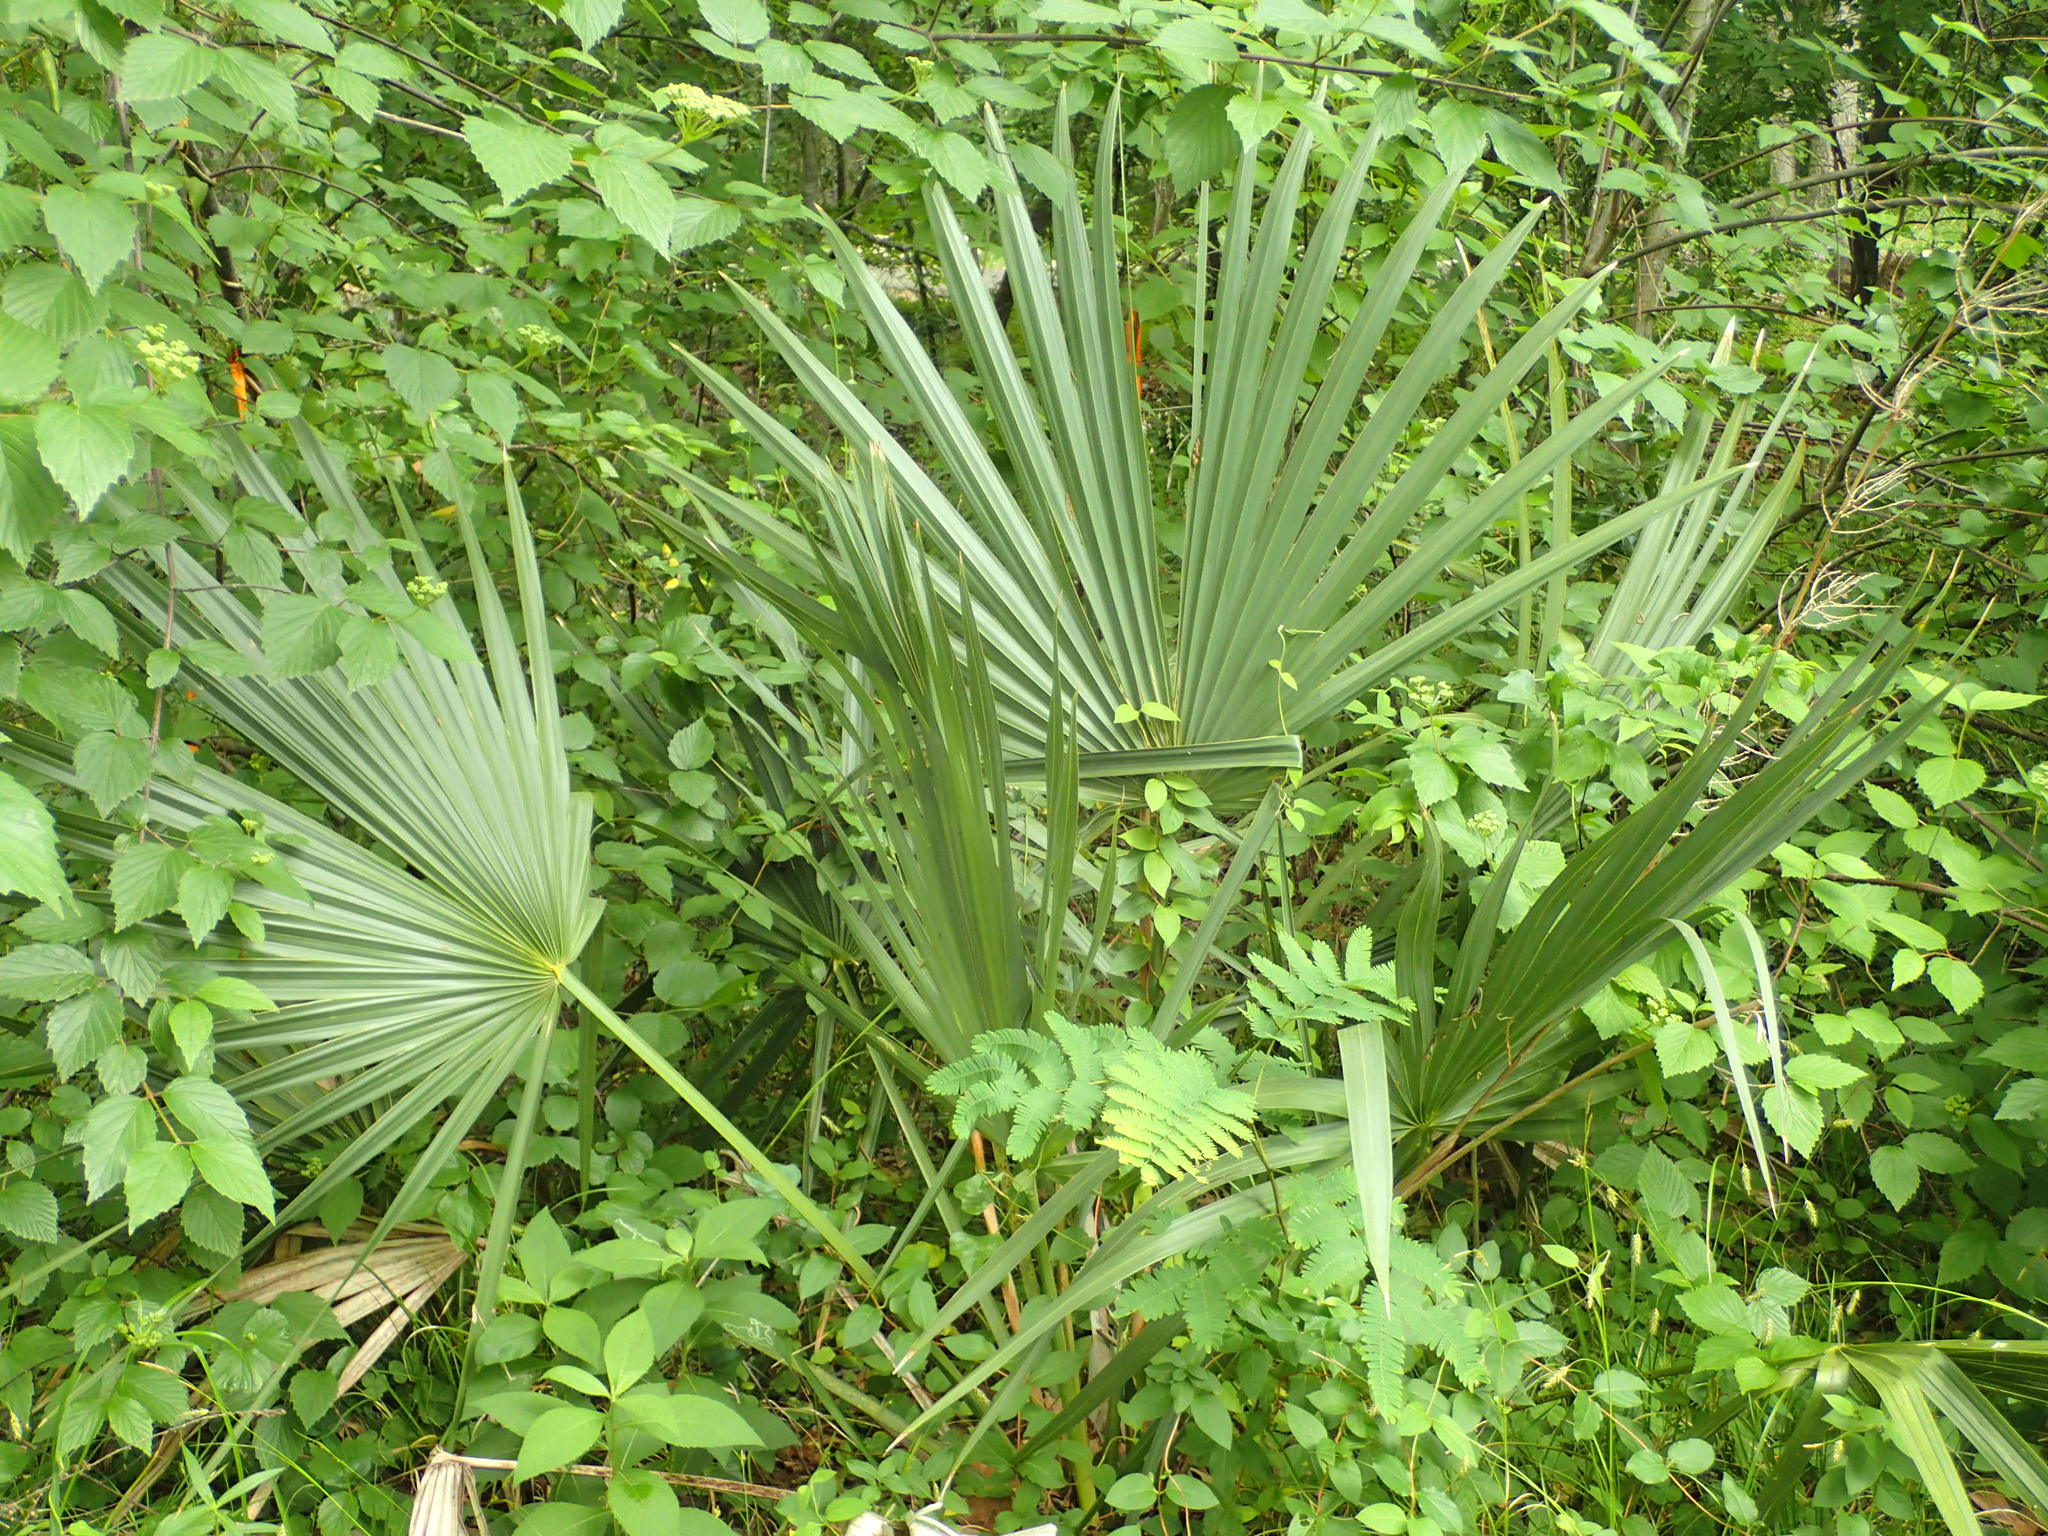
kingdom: Plantae
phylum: Tracheophyta
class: Liliopsida
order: Arecales
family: Arecaceae
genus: Sabal
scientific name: Sabal minor
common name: Dwarf palmetto
